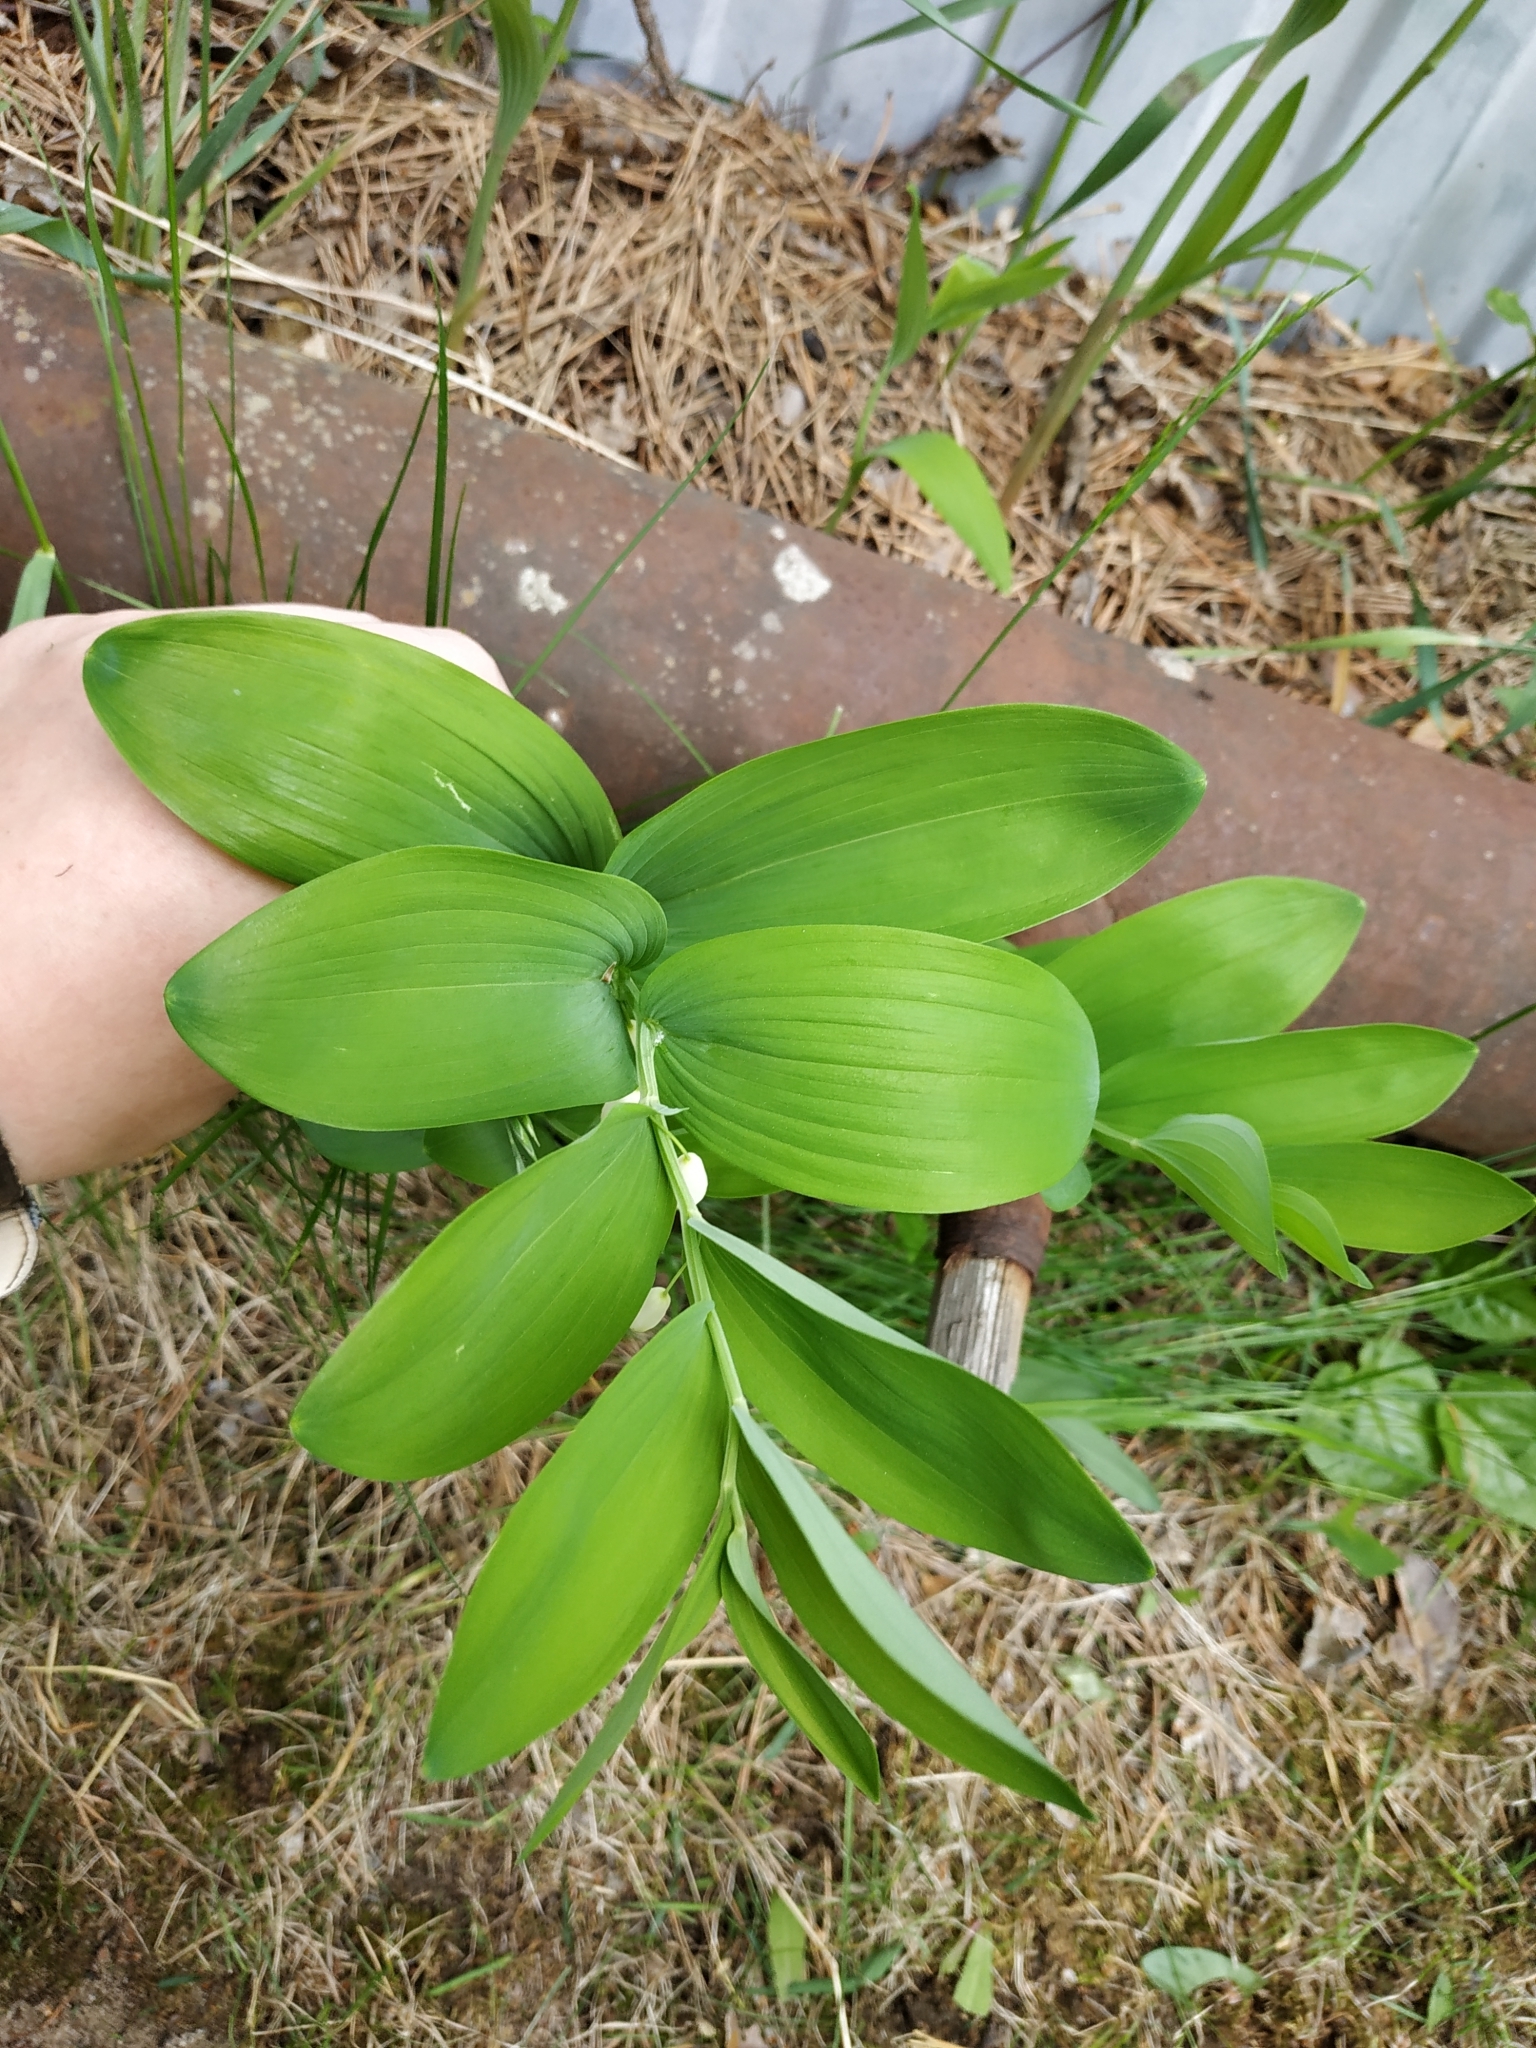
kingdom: Plantae
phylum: Tracheophyta
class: Liliopsida
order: Asparagales
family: Asparagaceae
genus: Polygonatum
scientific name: Polygonatum odoratum
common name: Angular solomon's-seal
